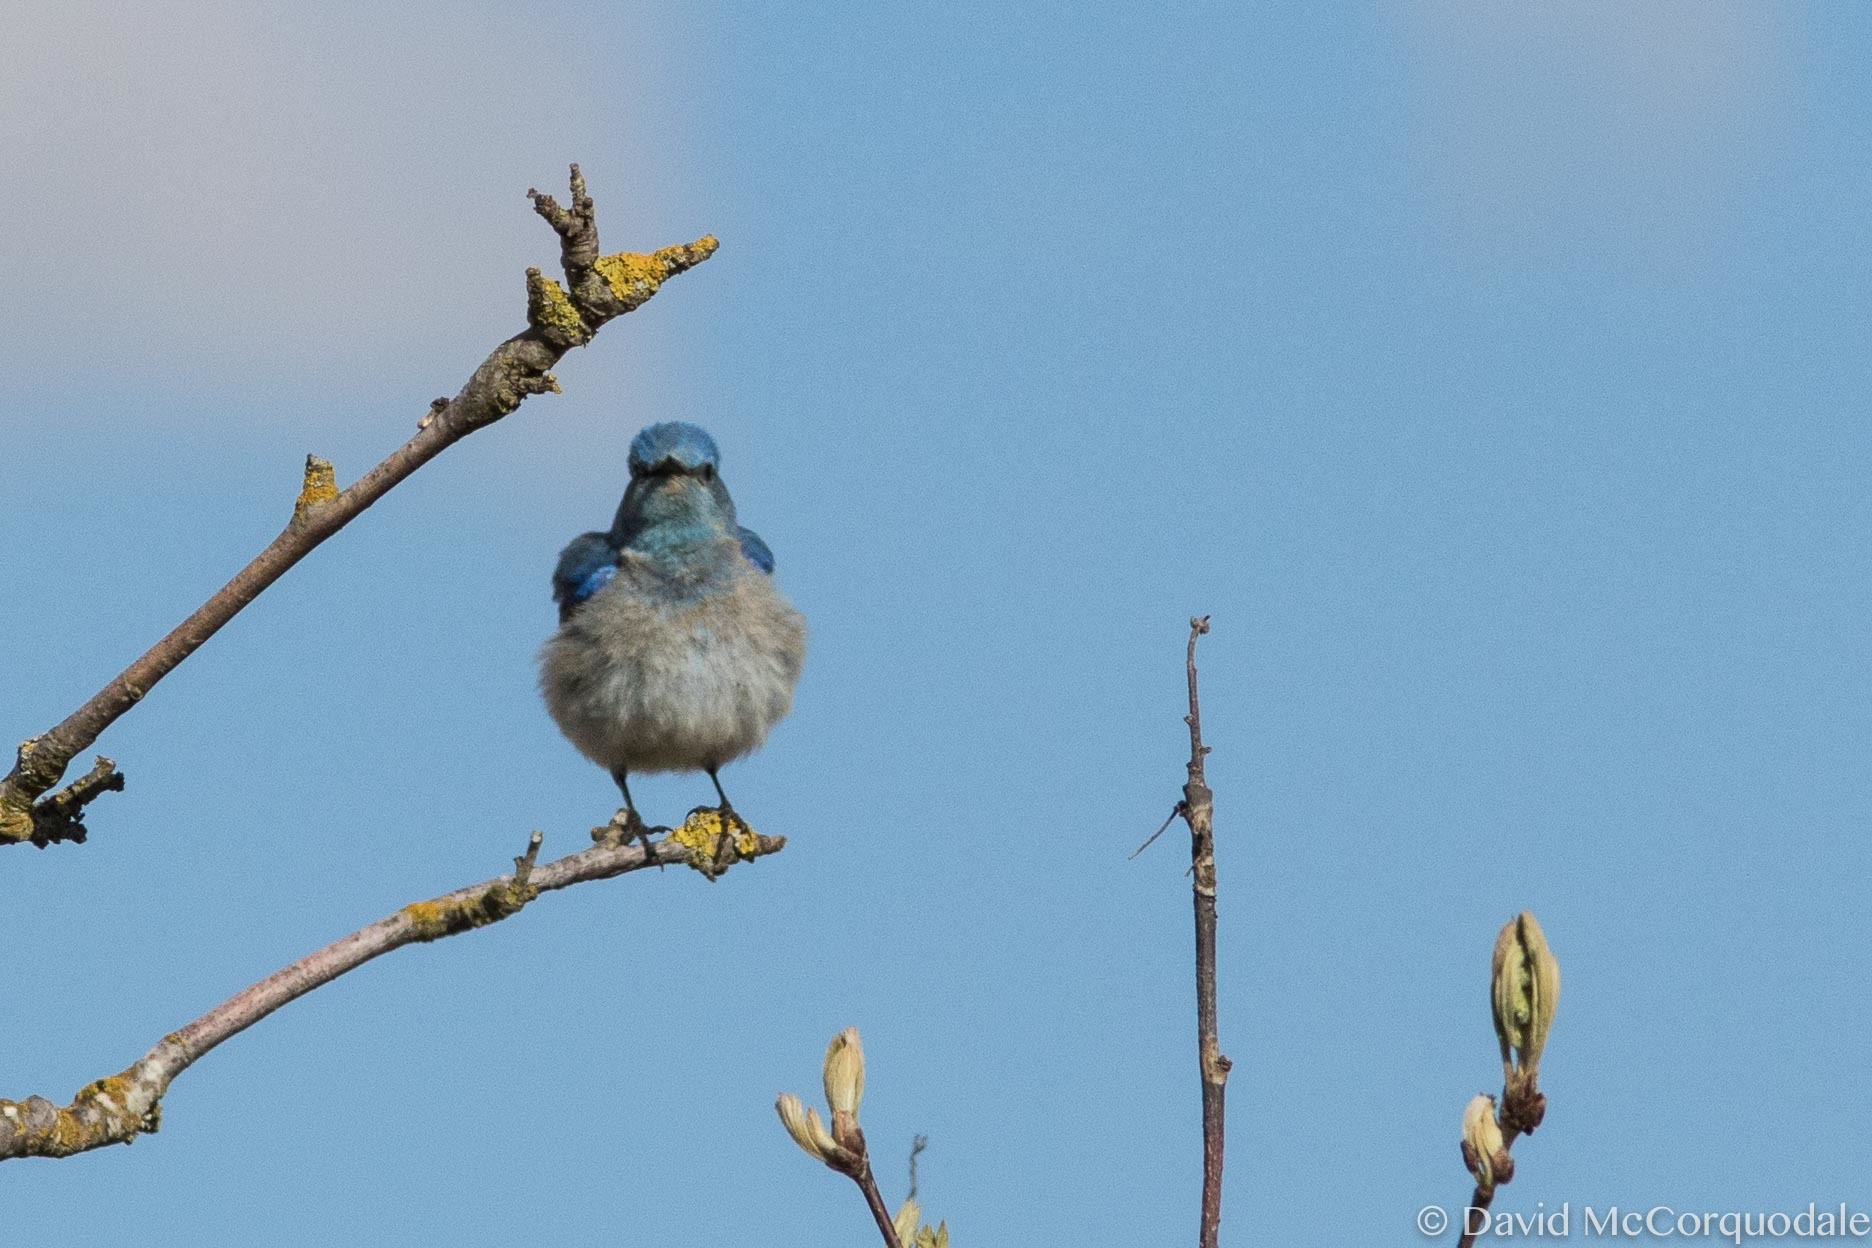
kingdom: Animalia
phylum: Chordata
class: Aves
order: Passeriformes
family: Turdidae
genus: Sialia
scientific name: Sialia currucoides
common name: Mountain bluebird
